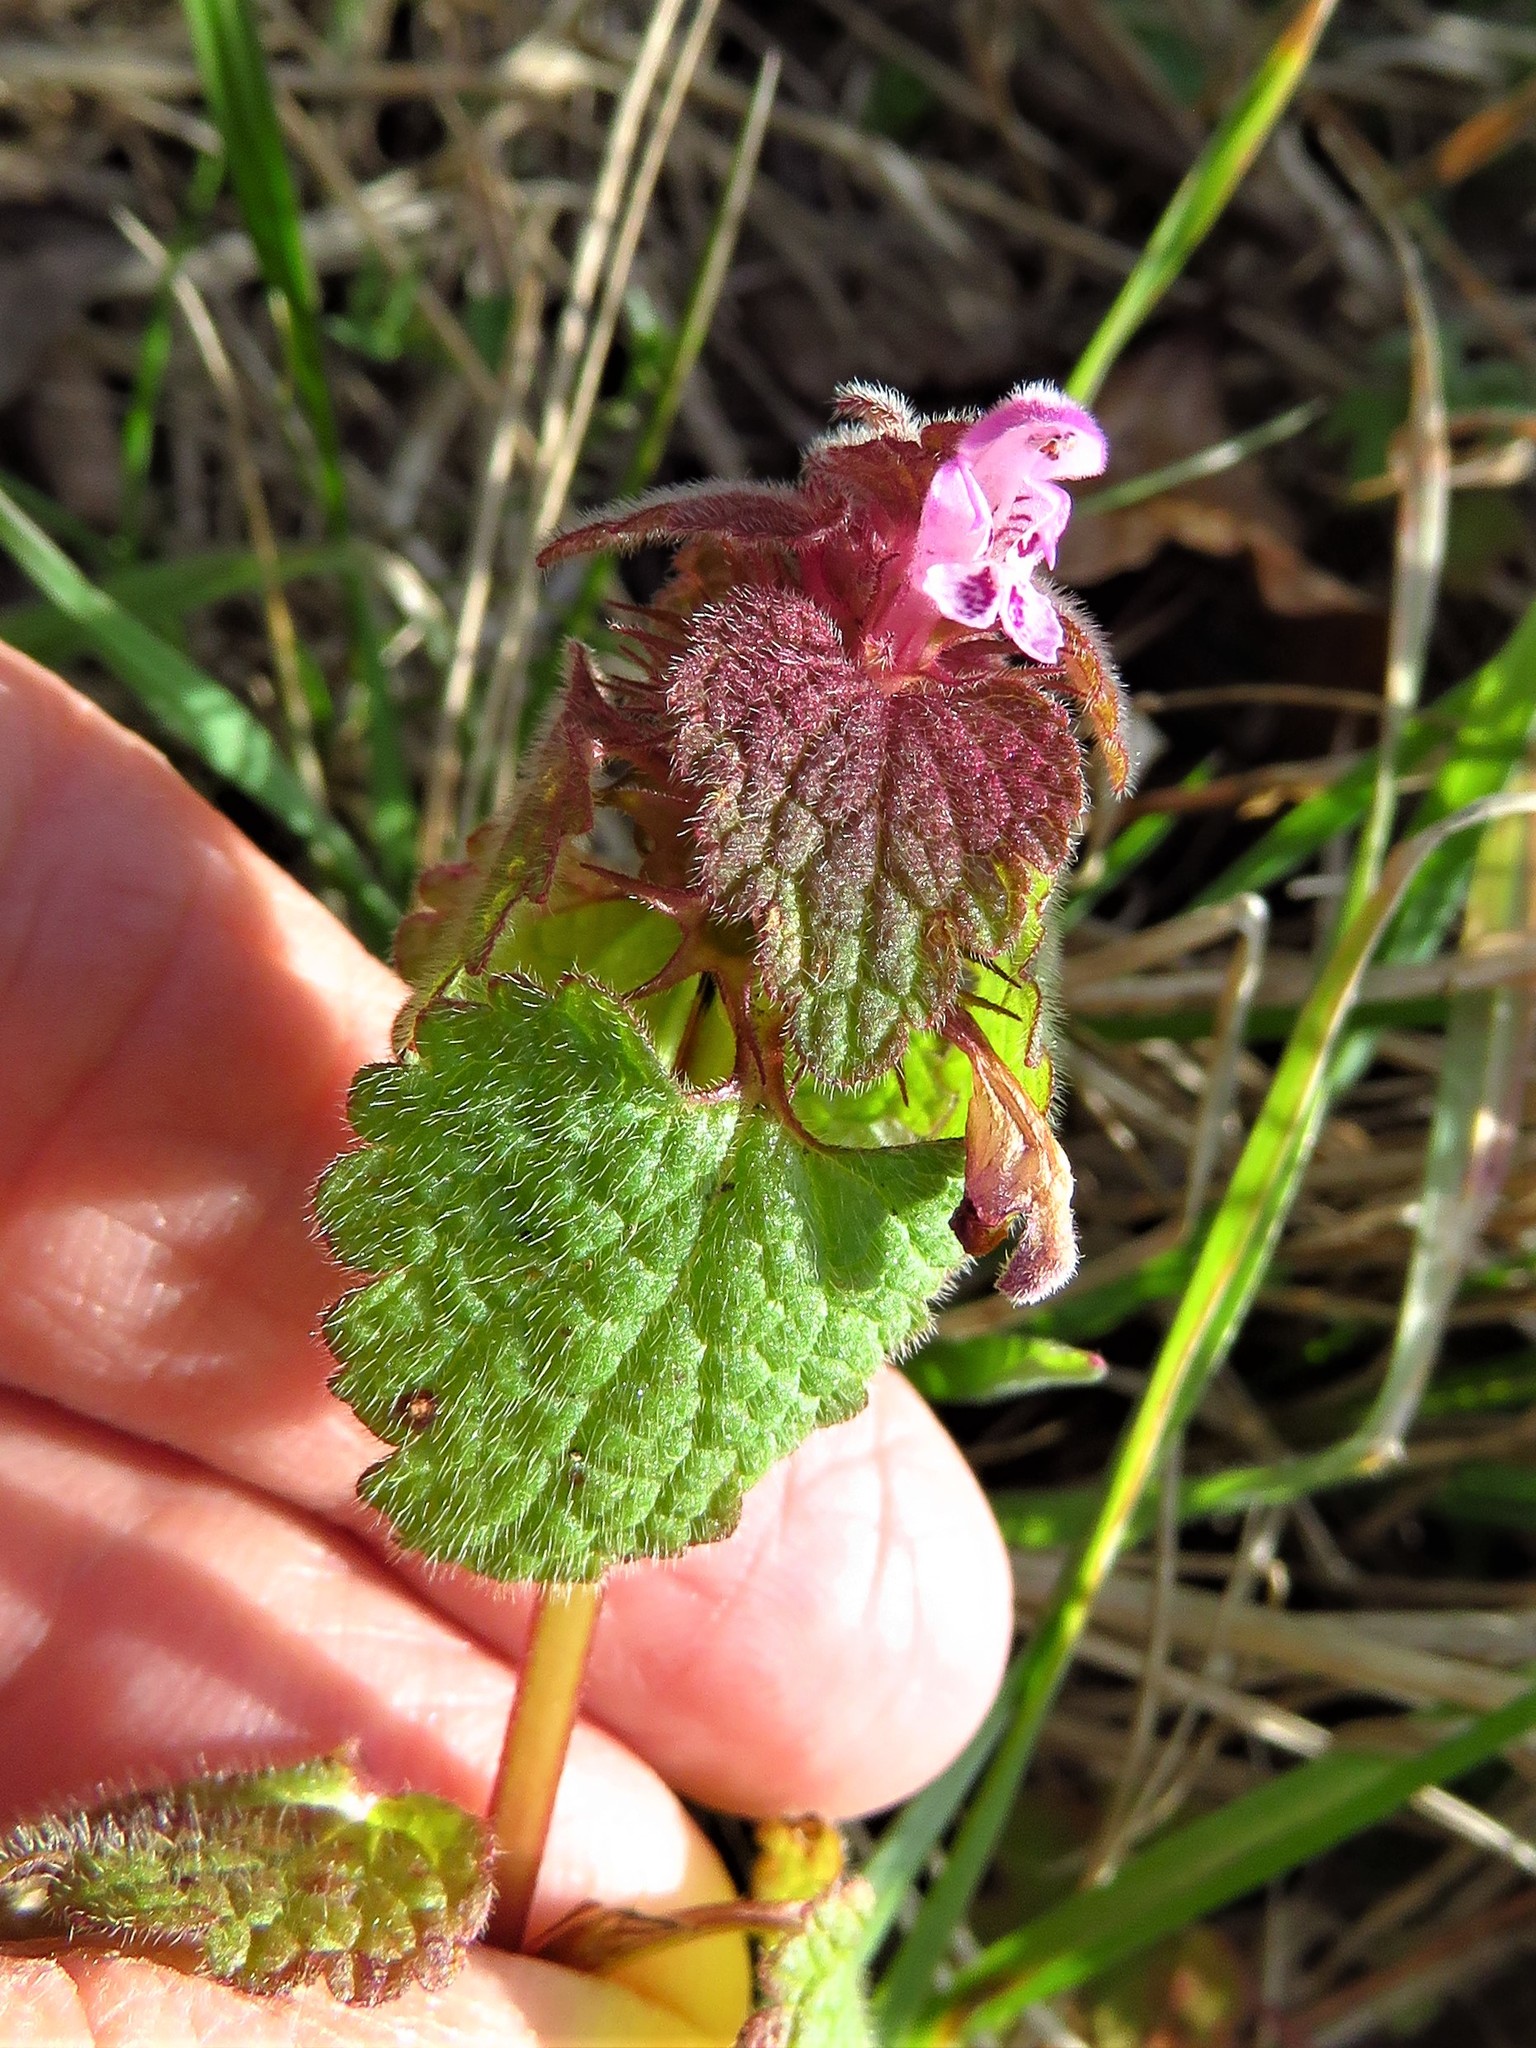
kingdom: Plantae
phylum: Tracheophyta
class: Magnoliopsida
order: Lamiales
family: Lamiaceae
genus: Lamium
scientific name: Lamium purpureum
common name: Red dead-nettle
